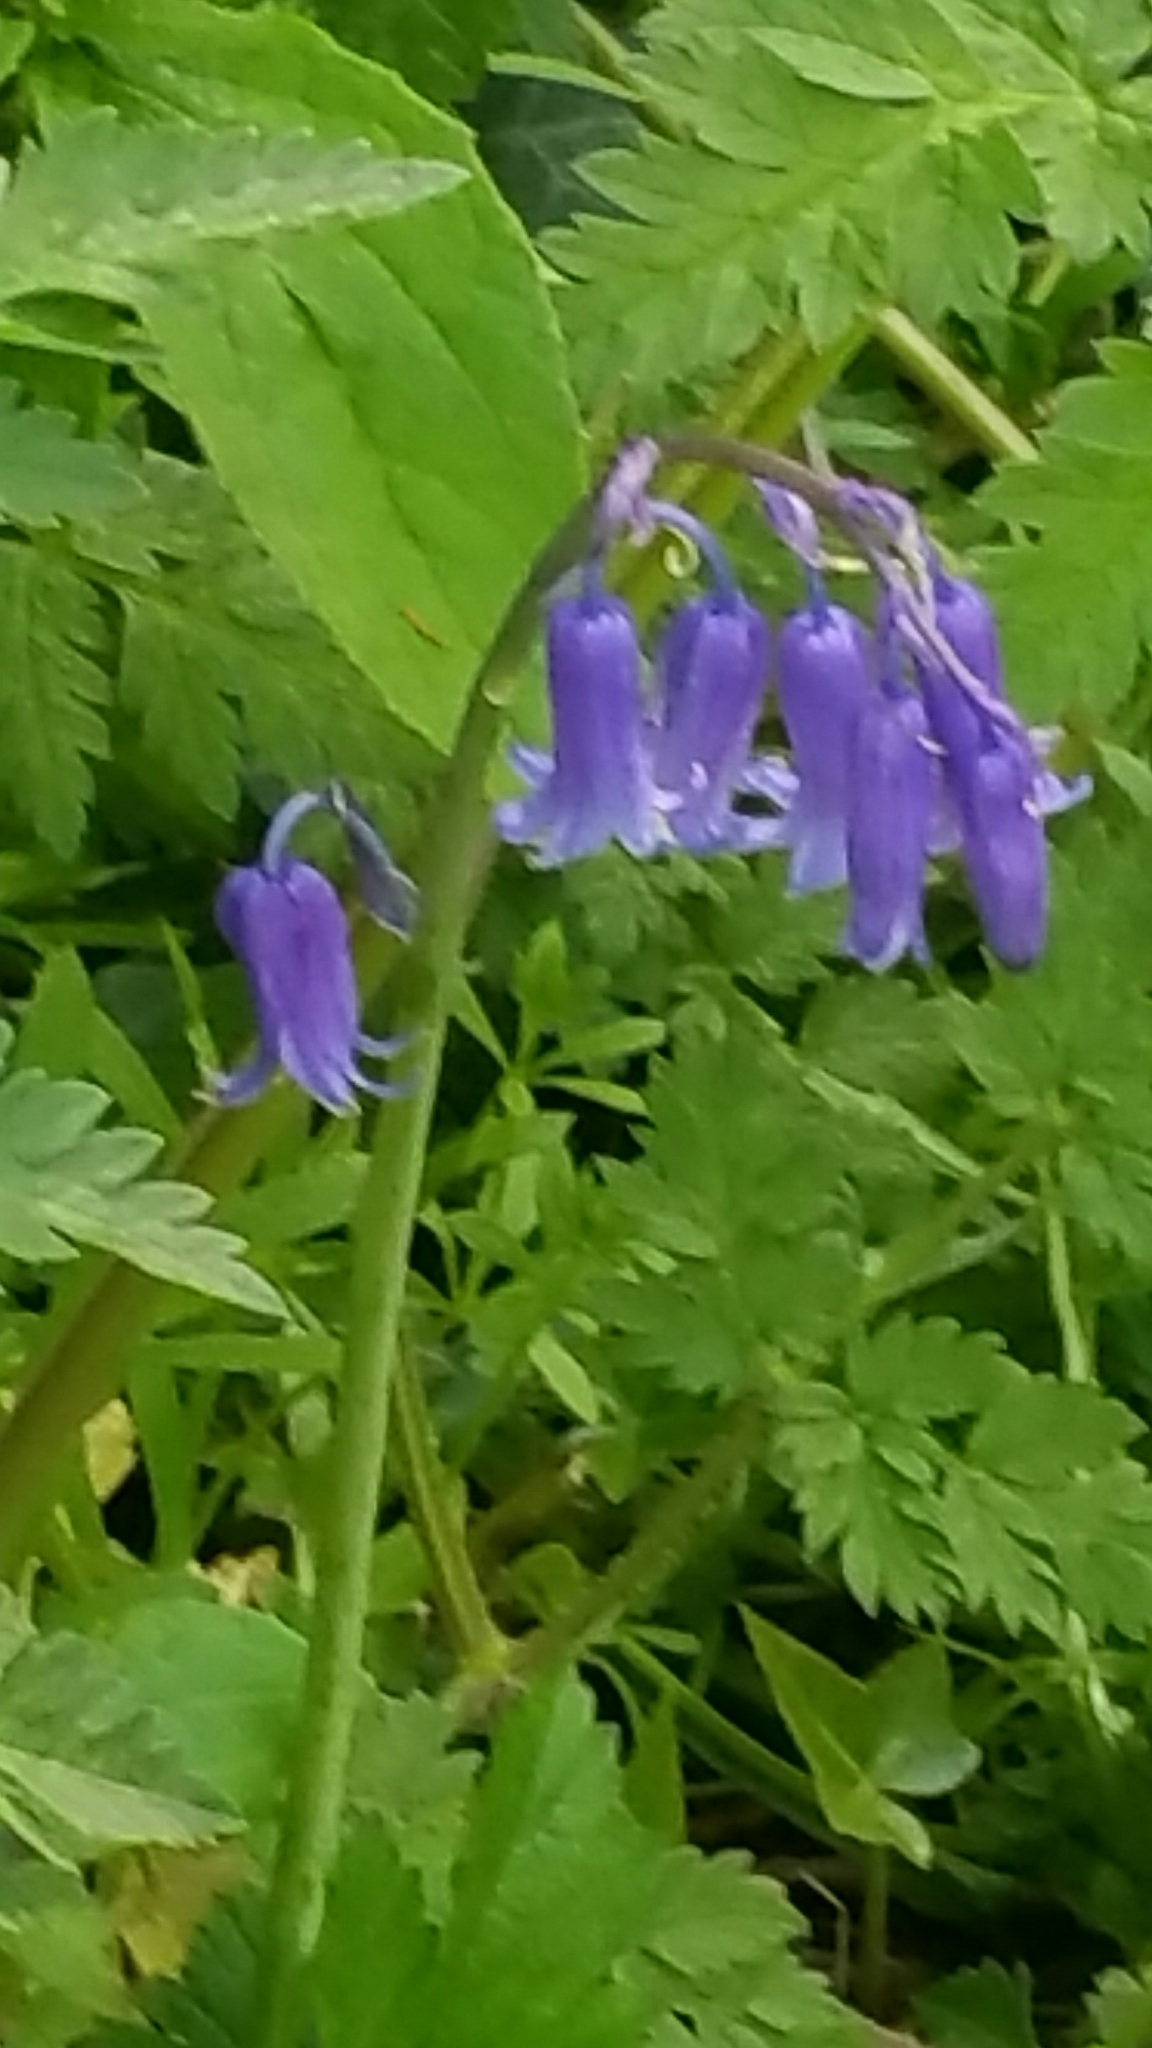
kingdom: Plantae
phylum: Tracheophyta
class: Liliopsida
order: Asparagales
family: Asparagaceae
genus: Hyacinthoides
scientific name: Hyacinthoides non-scripta
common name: Bluebell
